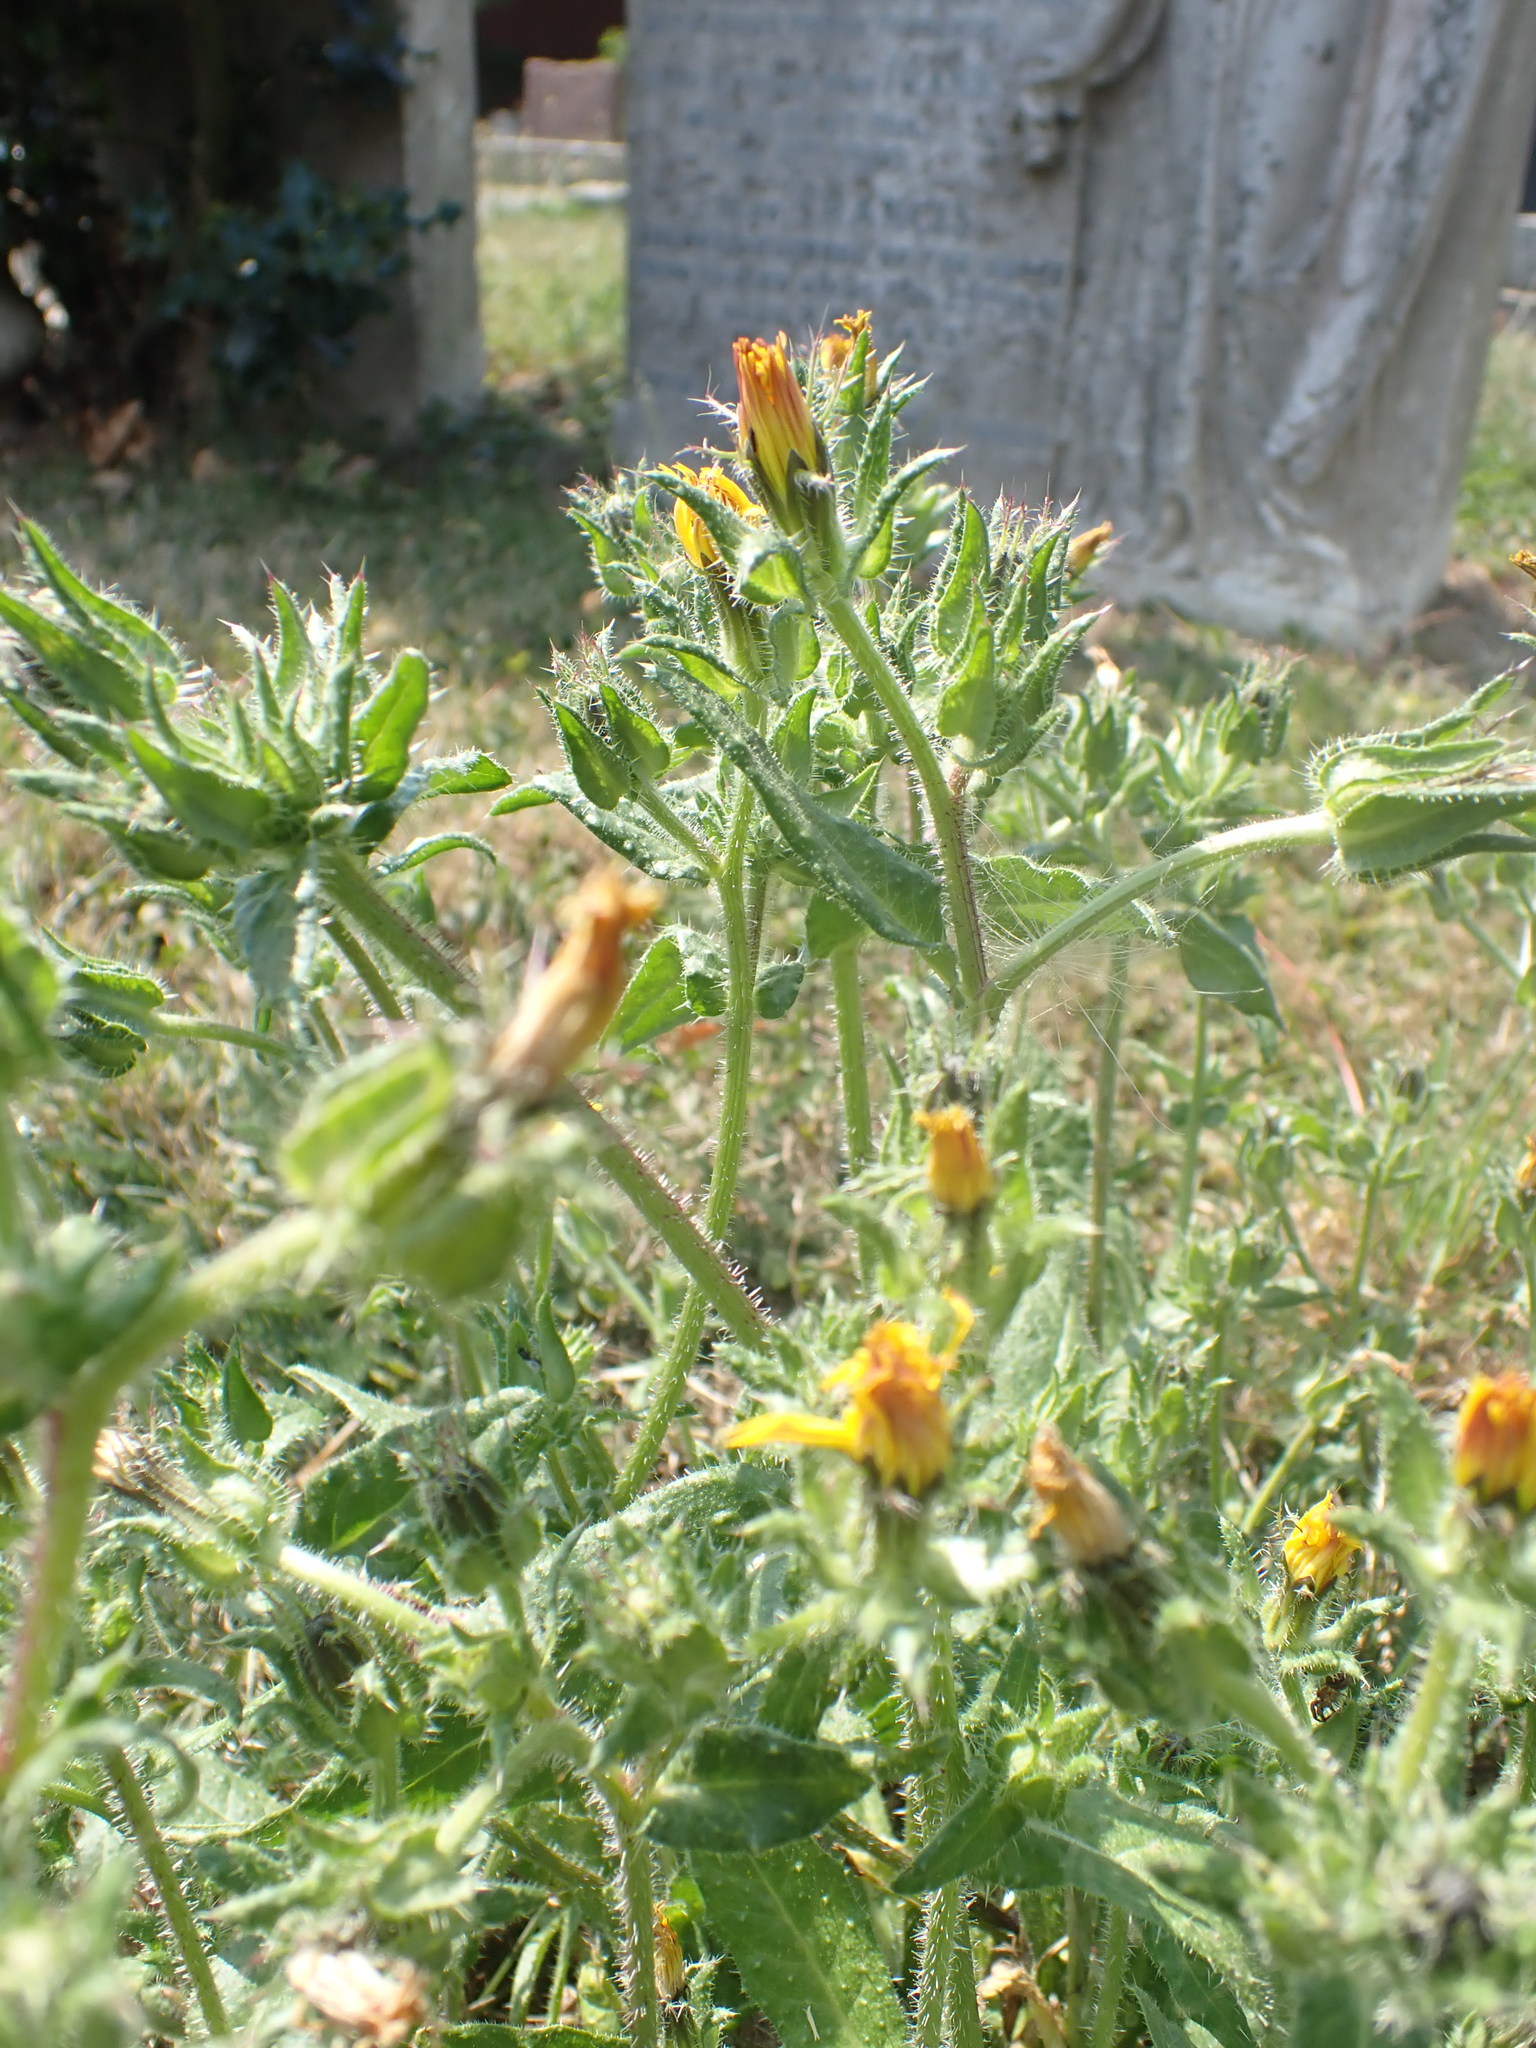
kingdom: Plantae
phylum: Tracheophyta
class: Magnoliopsida
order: Asterales
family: Asteraceae
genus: Helminthotheca
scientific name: Helminthotheca echioides
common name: Ox-tongue
